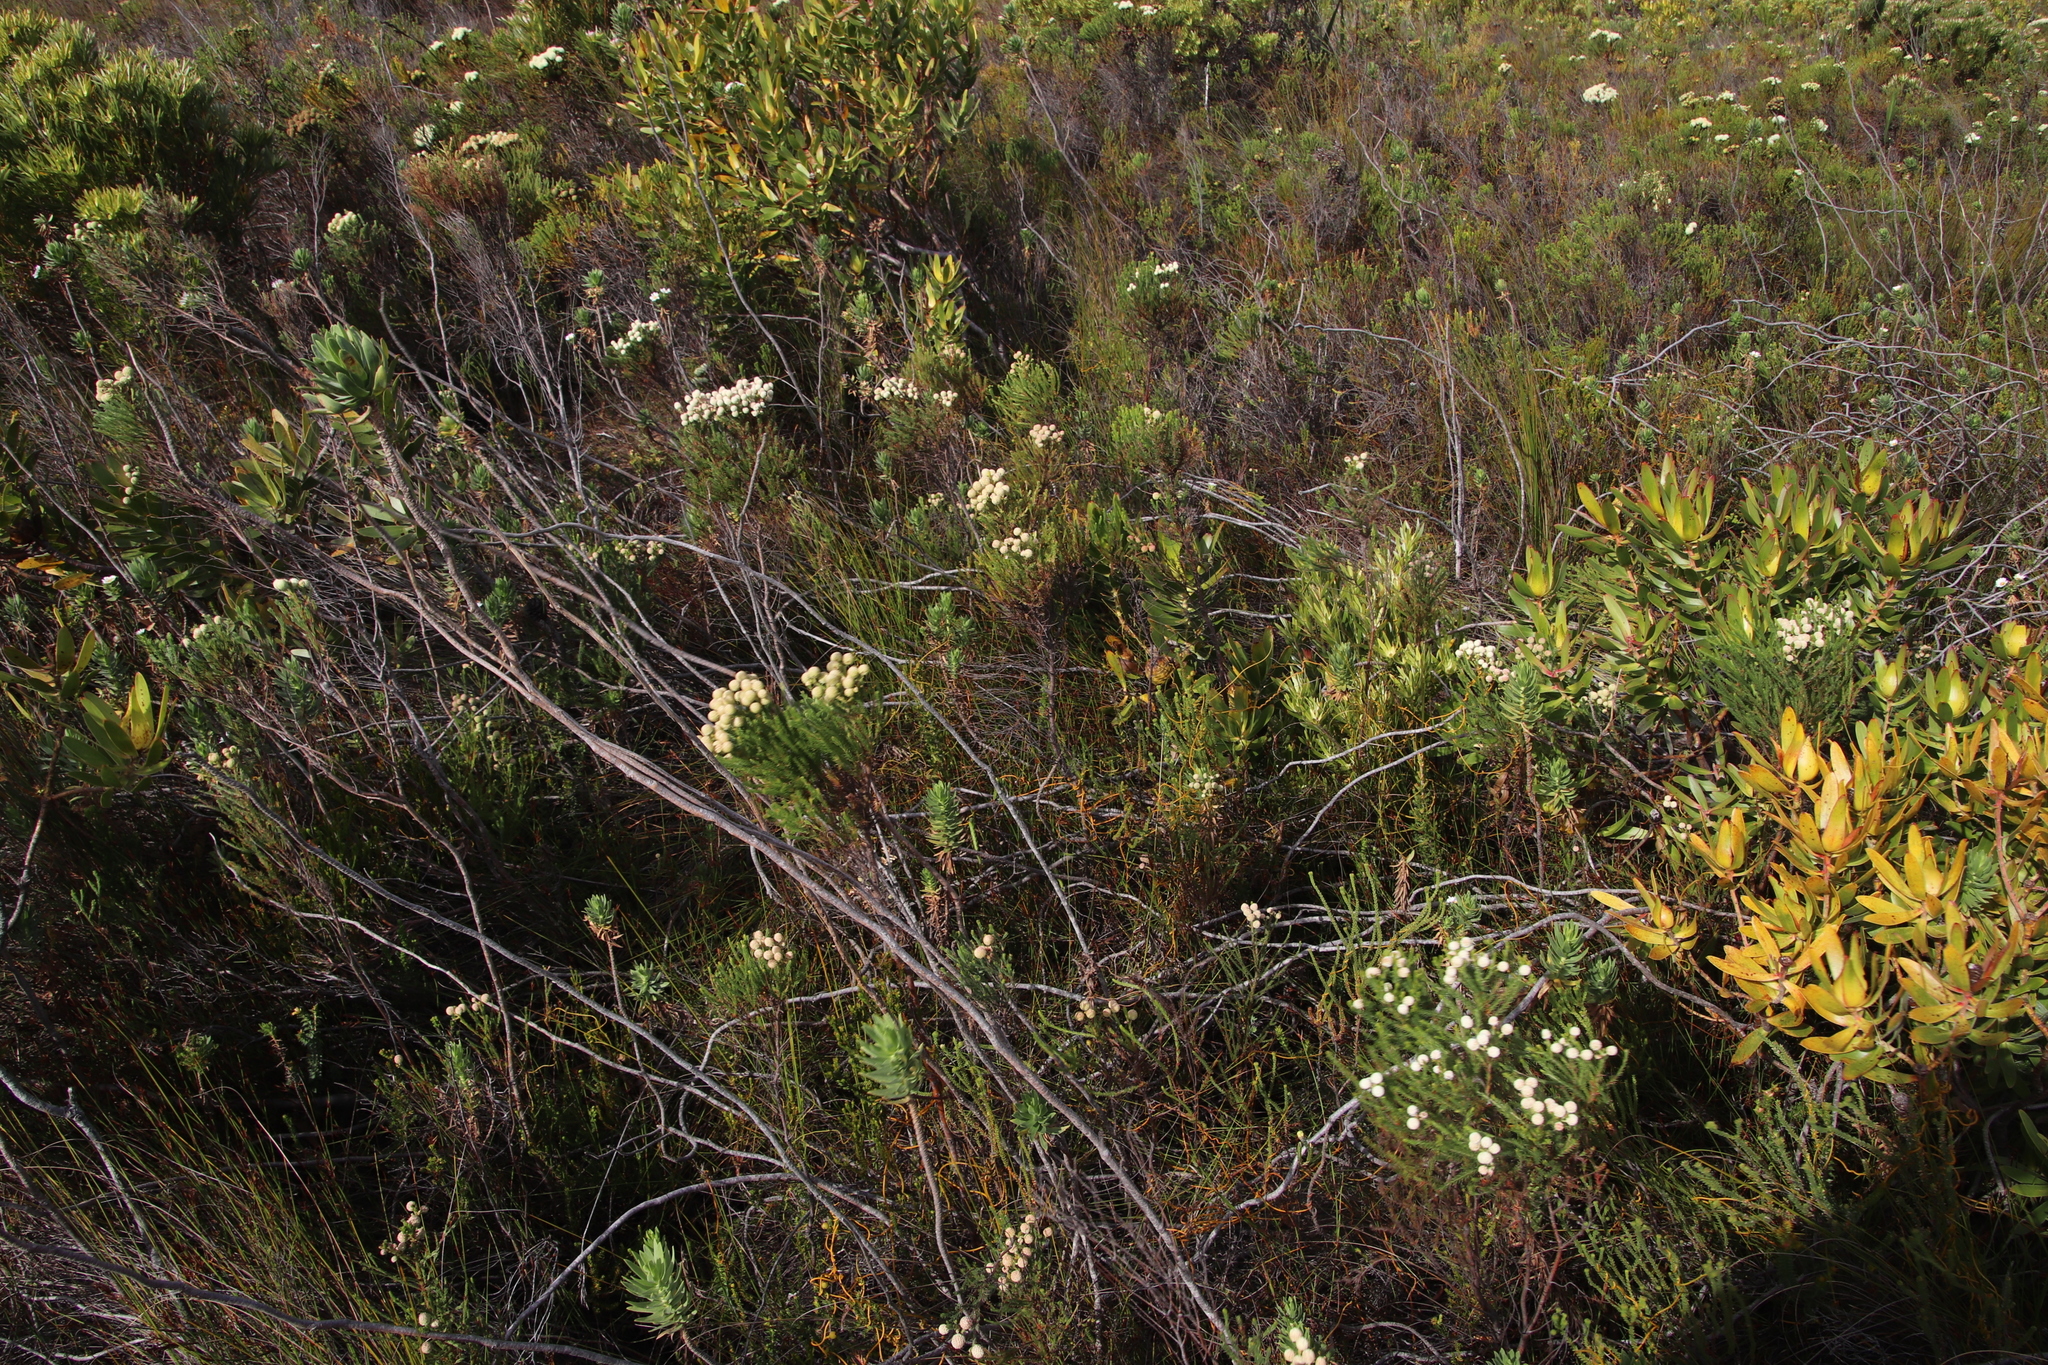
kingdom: Plantae
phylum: Tracheophyta
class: Magnoliopsida
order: Bruniales
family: Bruniaceae
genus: Berzelia
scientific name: Berzelia lanuginosa
